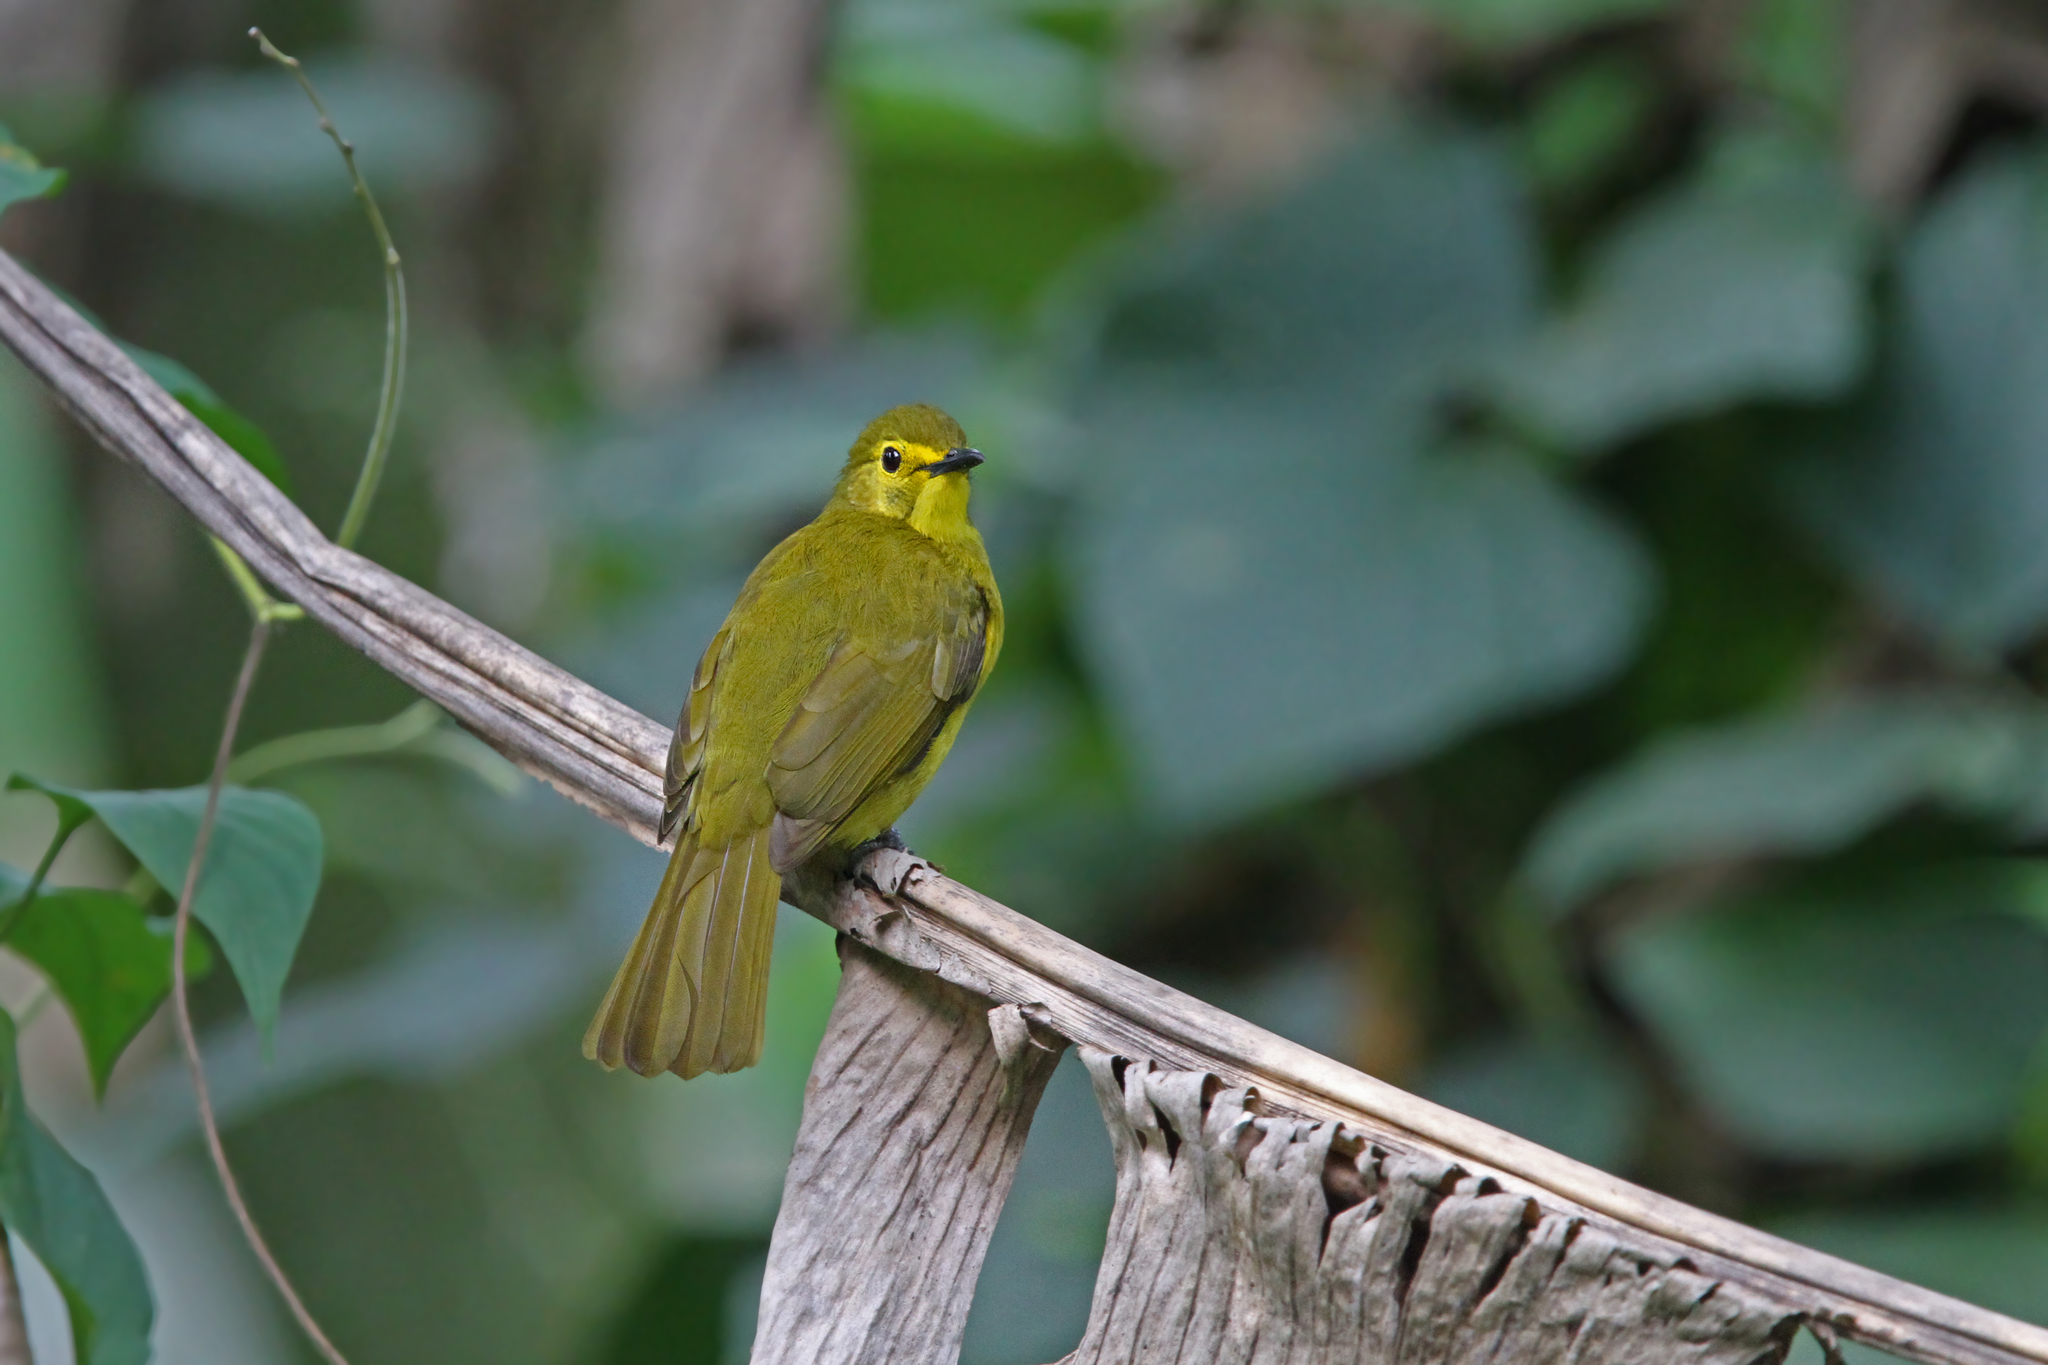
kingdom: Animalia
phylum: Chordata
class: Aves
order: Passeriformes
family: Pycnonotidae
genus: Acritillas
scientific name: Acritillas indica
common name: Yellow-browed bulbul
